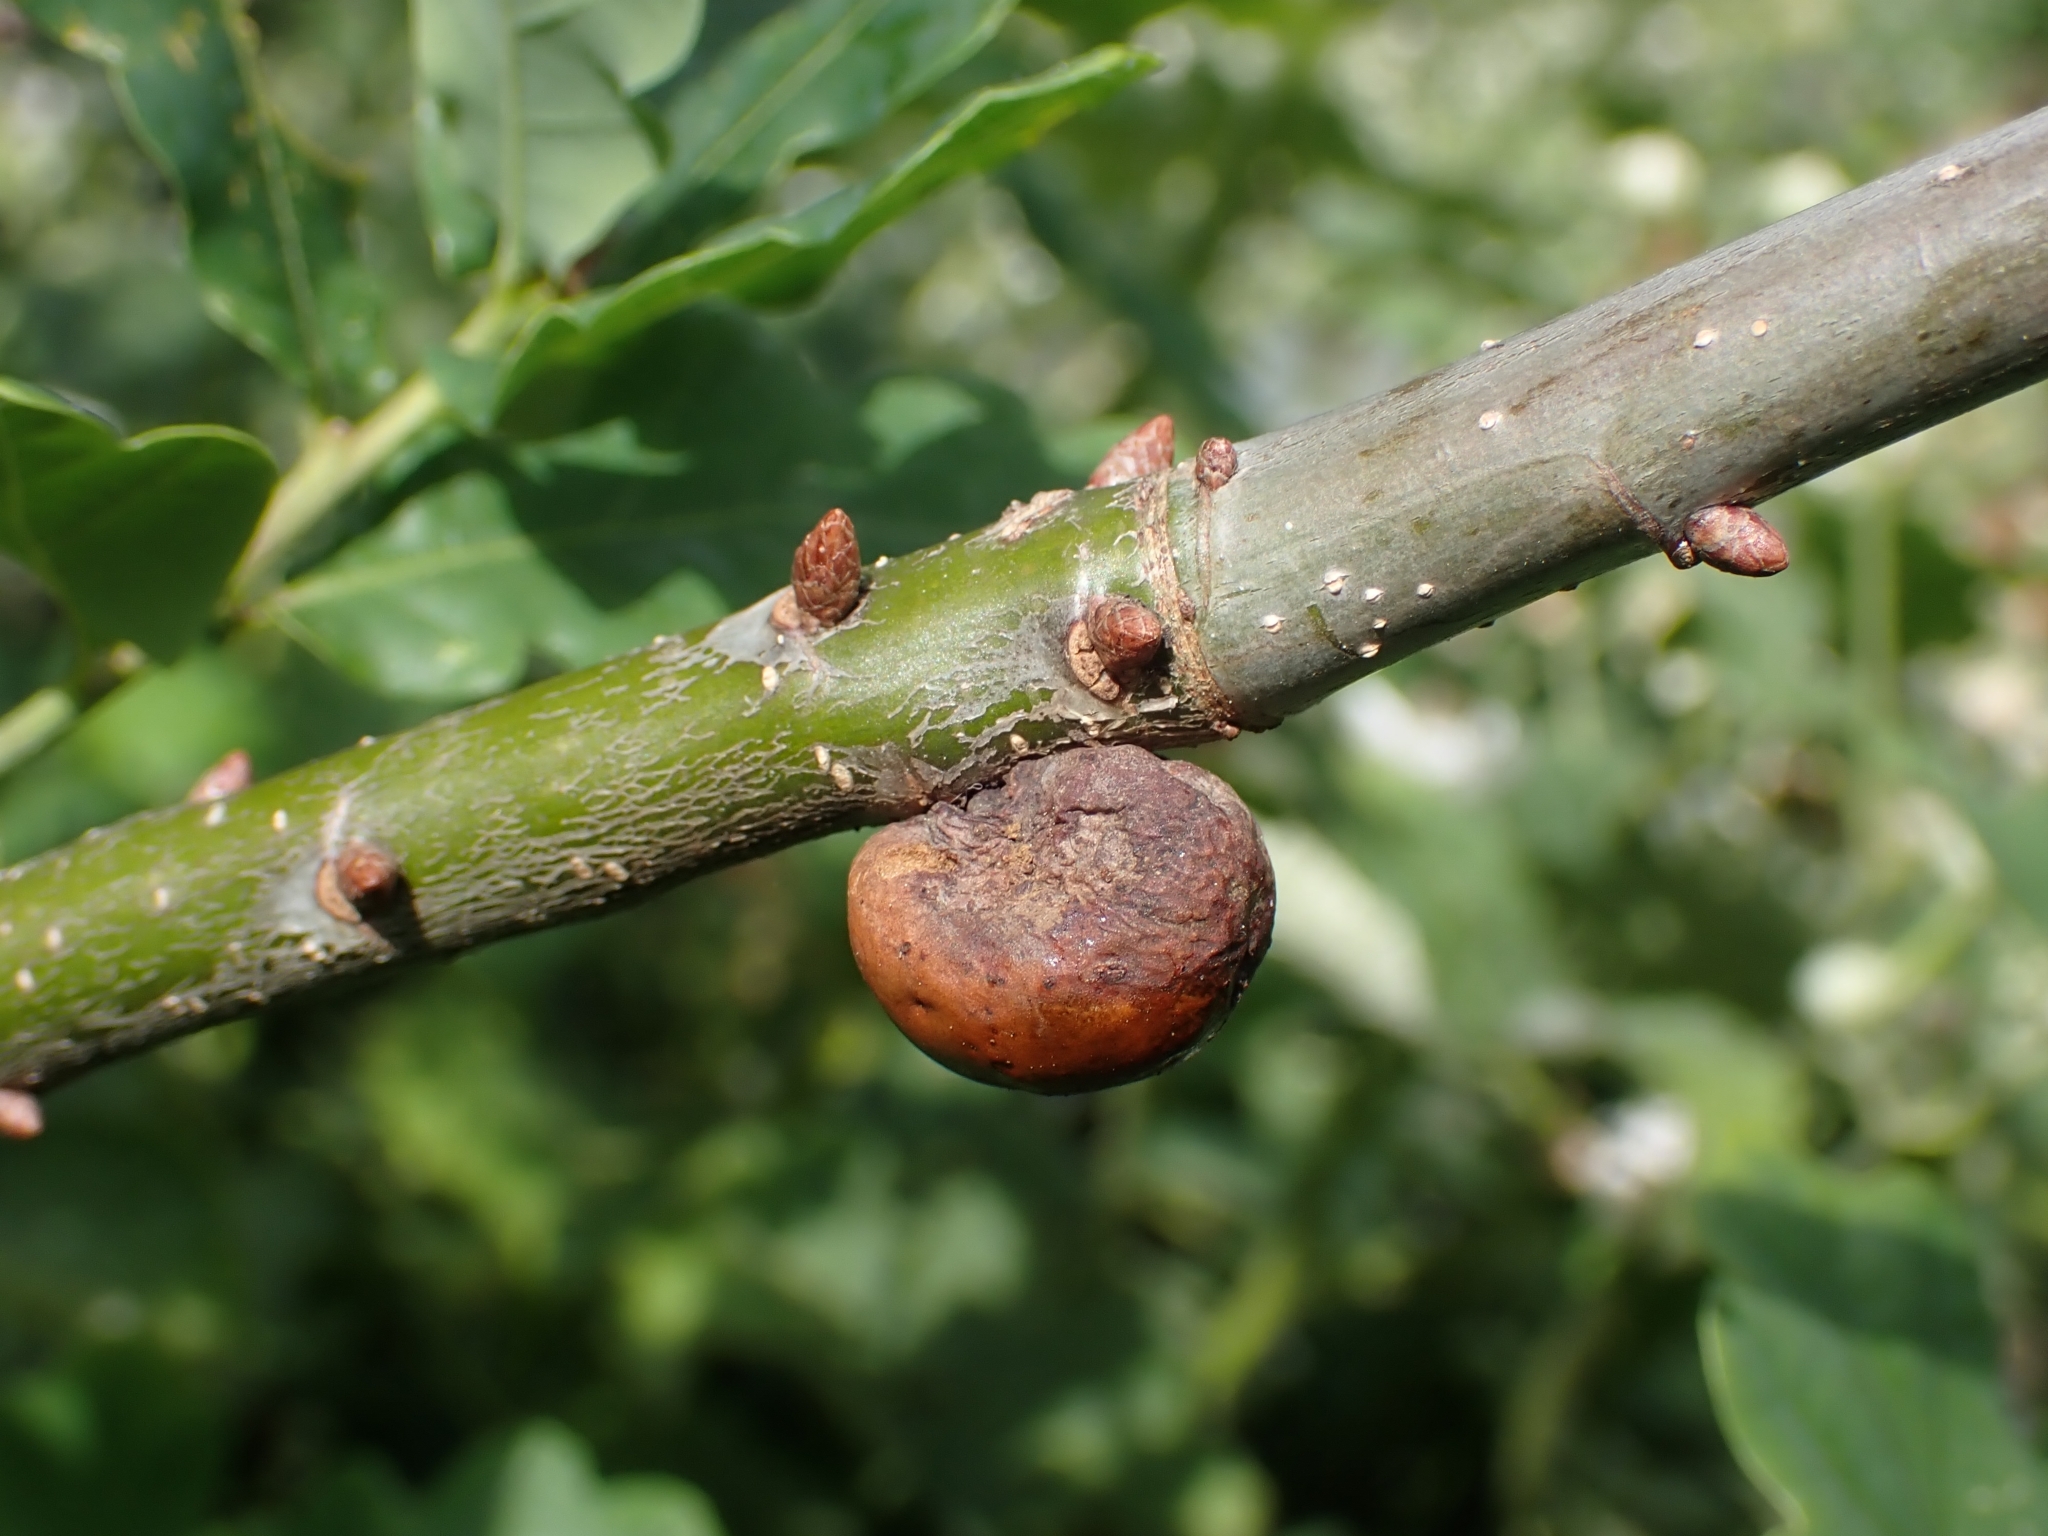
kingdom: Animalia
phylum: Arthropoda
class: Insecta
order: Hymenoptera
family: Cynipidae
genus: Andricus
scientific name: Andricus kollari
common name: Marble gall
